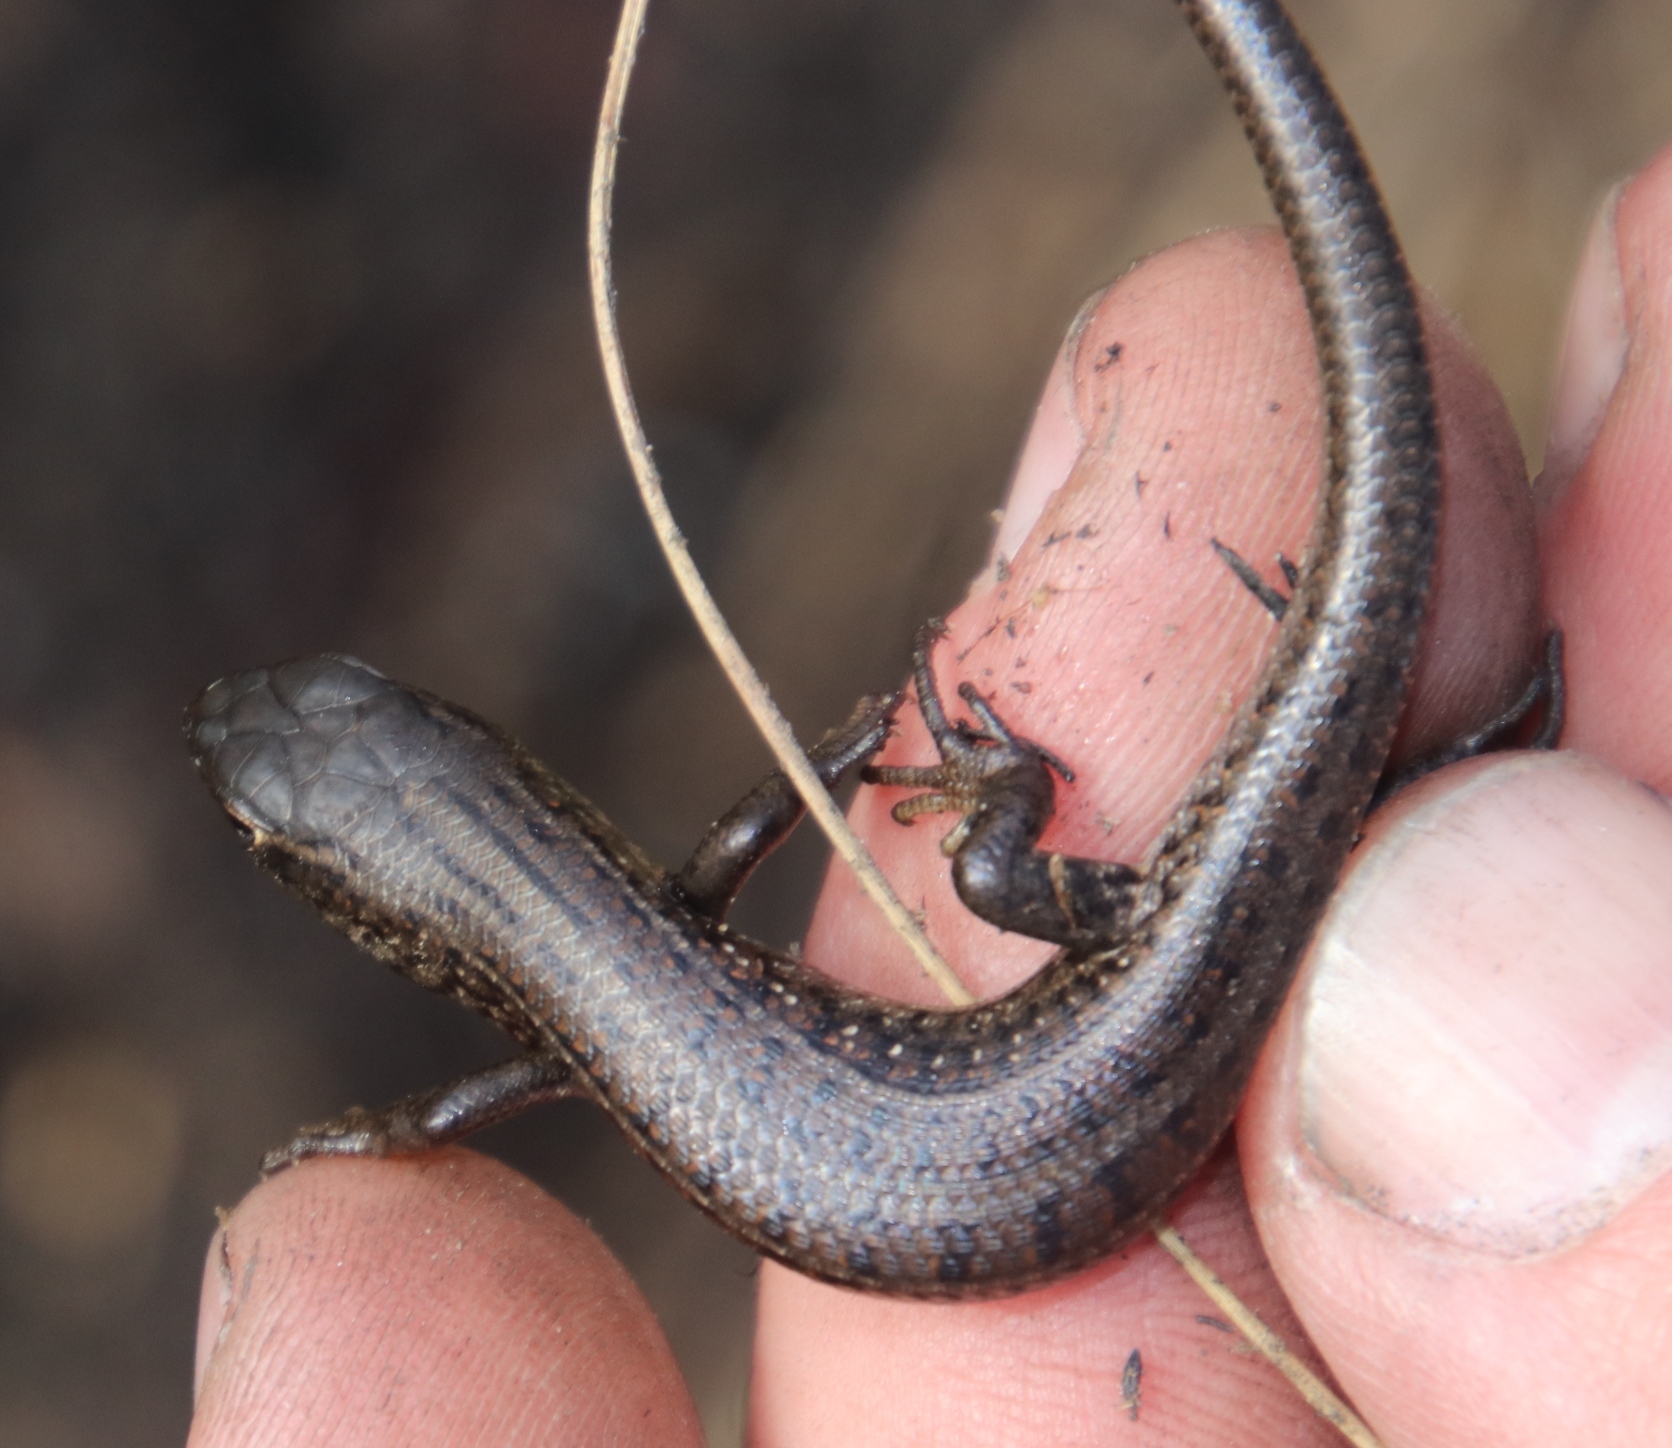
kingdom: Animalia
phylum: Chordata
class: Squamata
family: Scincidae
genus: Trachylepis
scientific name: Trachylepis capensis
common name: Cape skink
